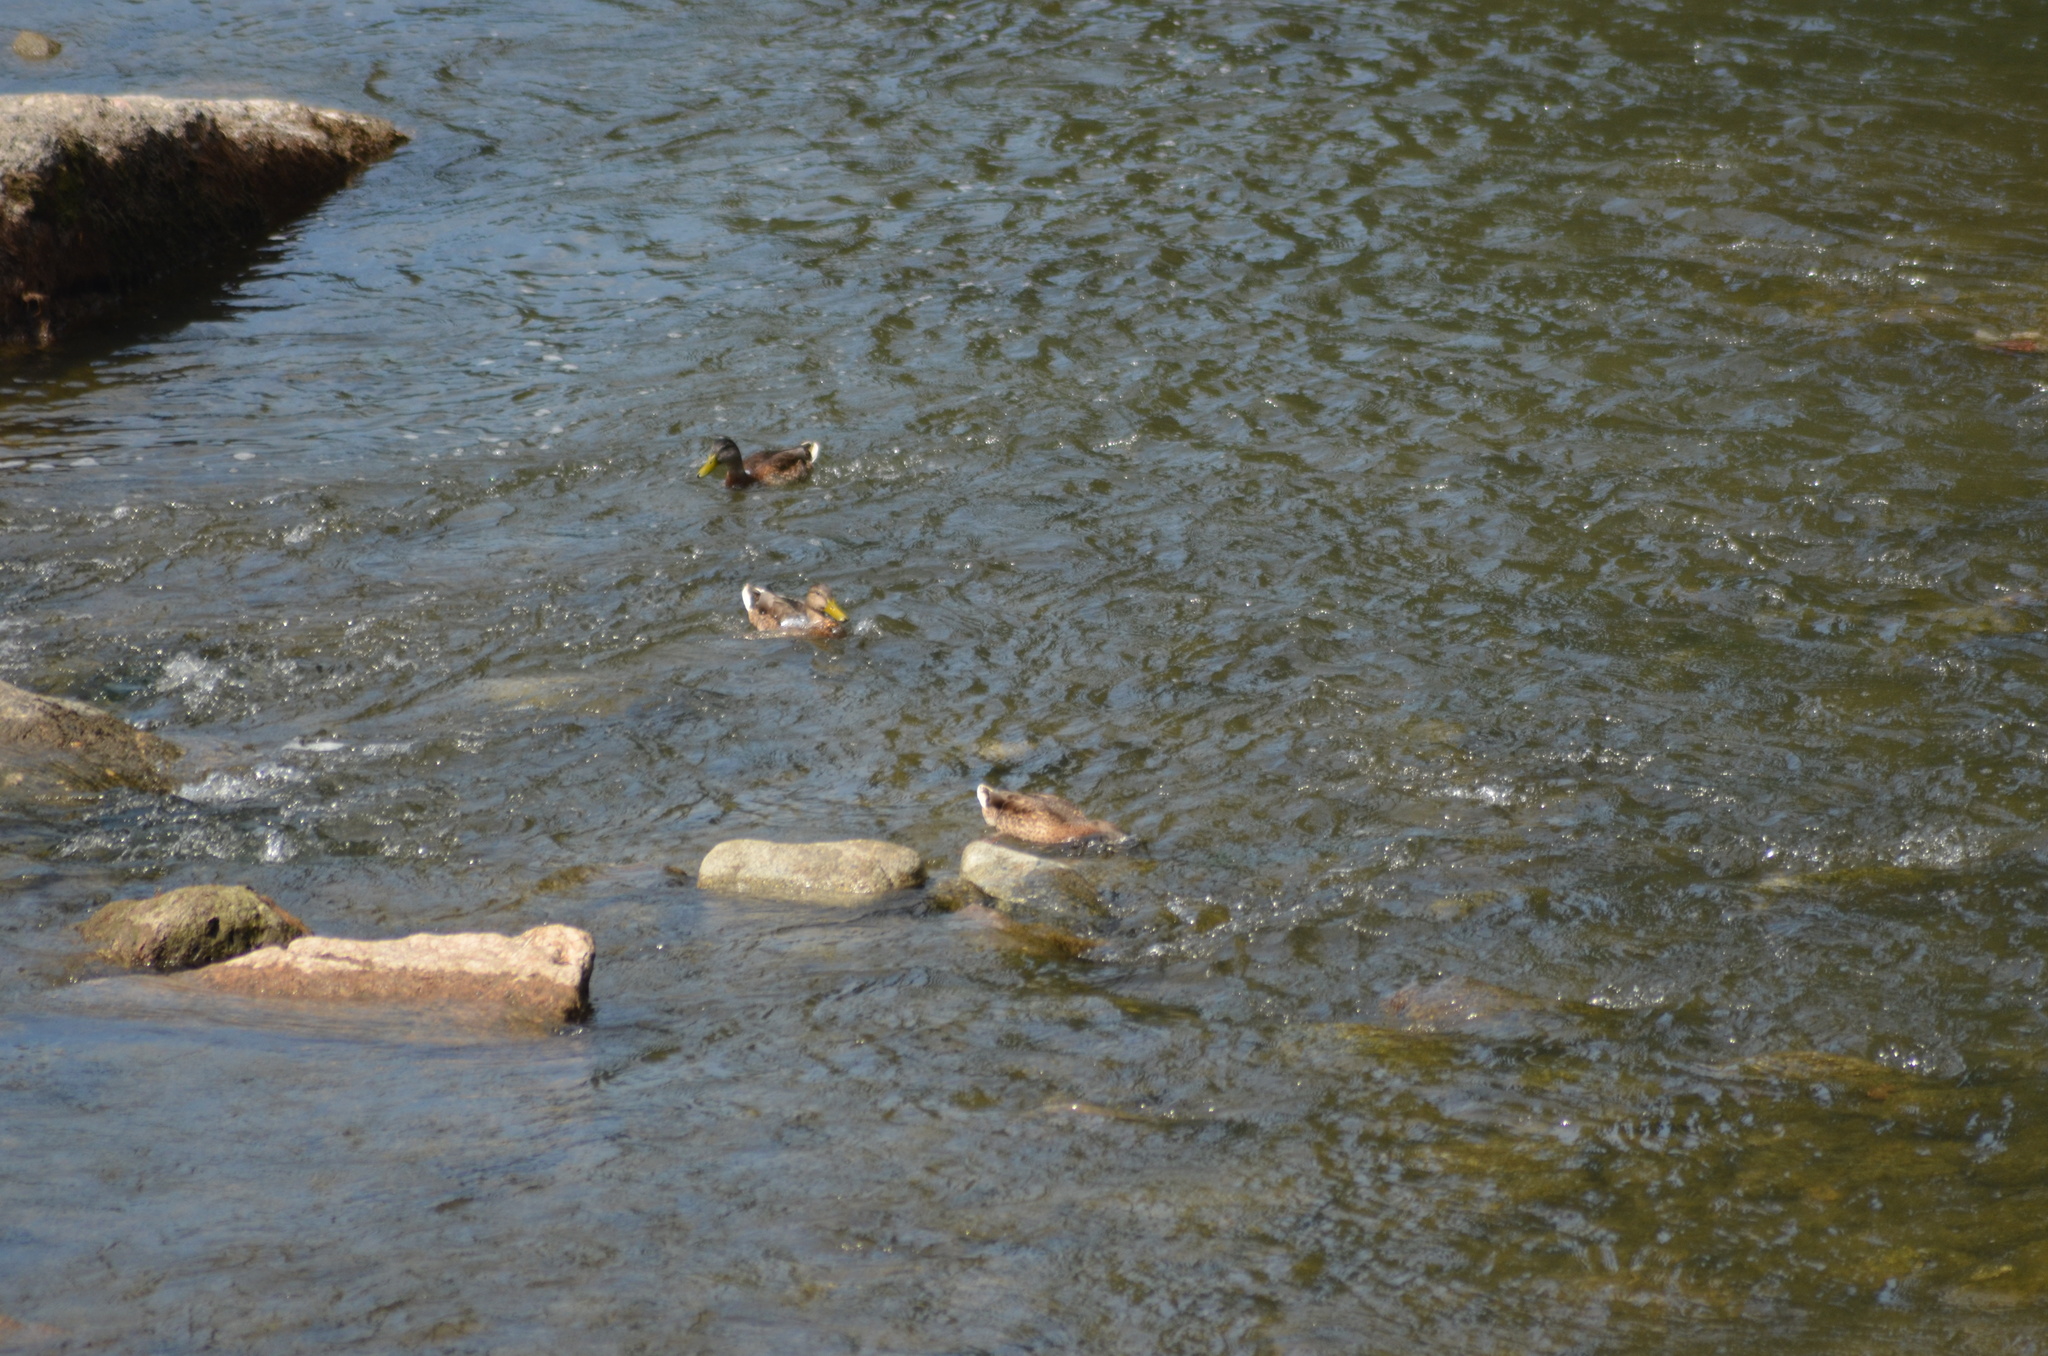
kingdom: Animalia
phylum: Chordata
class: Aves
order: Anseriformes
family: Anatidae
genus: Anas
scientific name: Anas platyrhynchos
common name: Mallard
